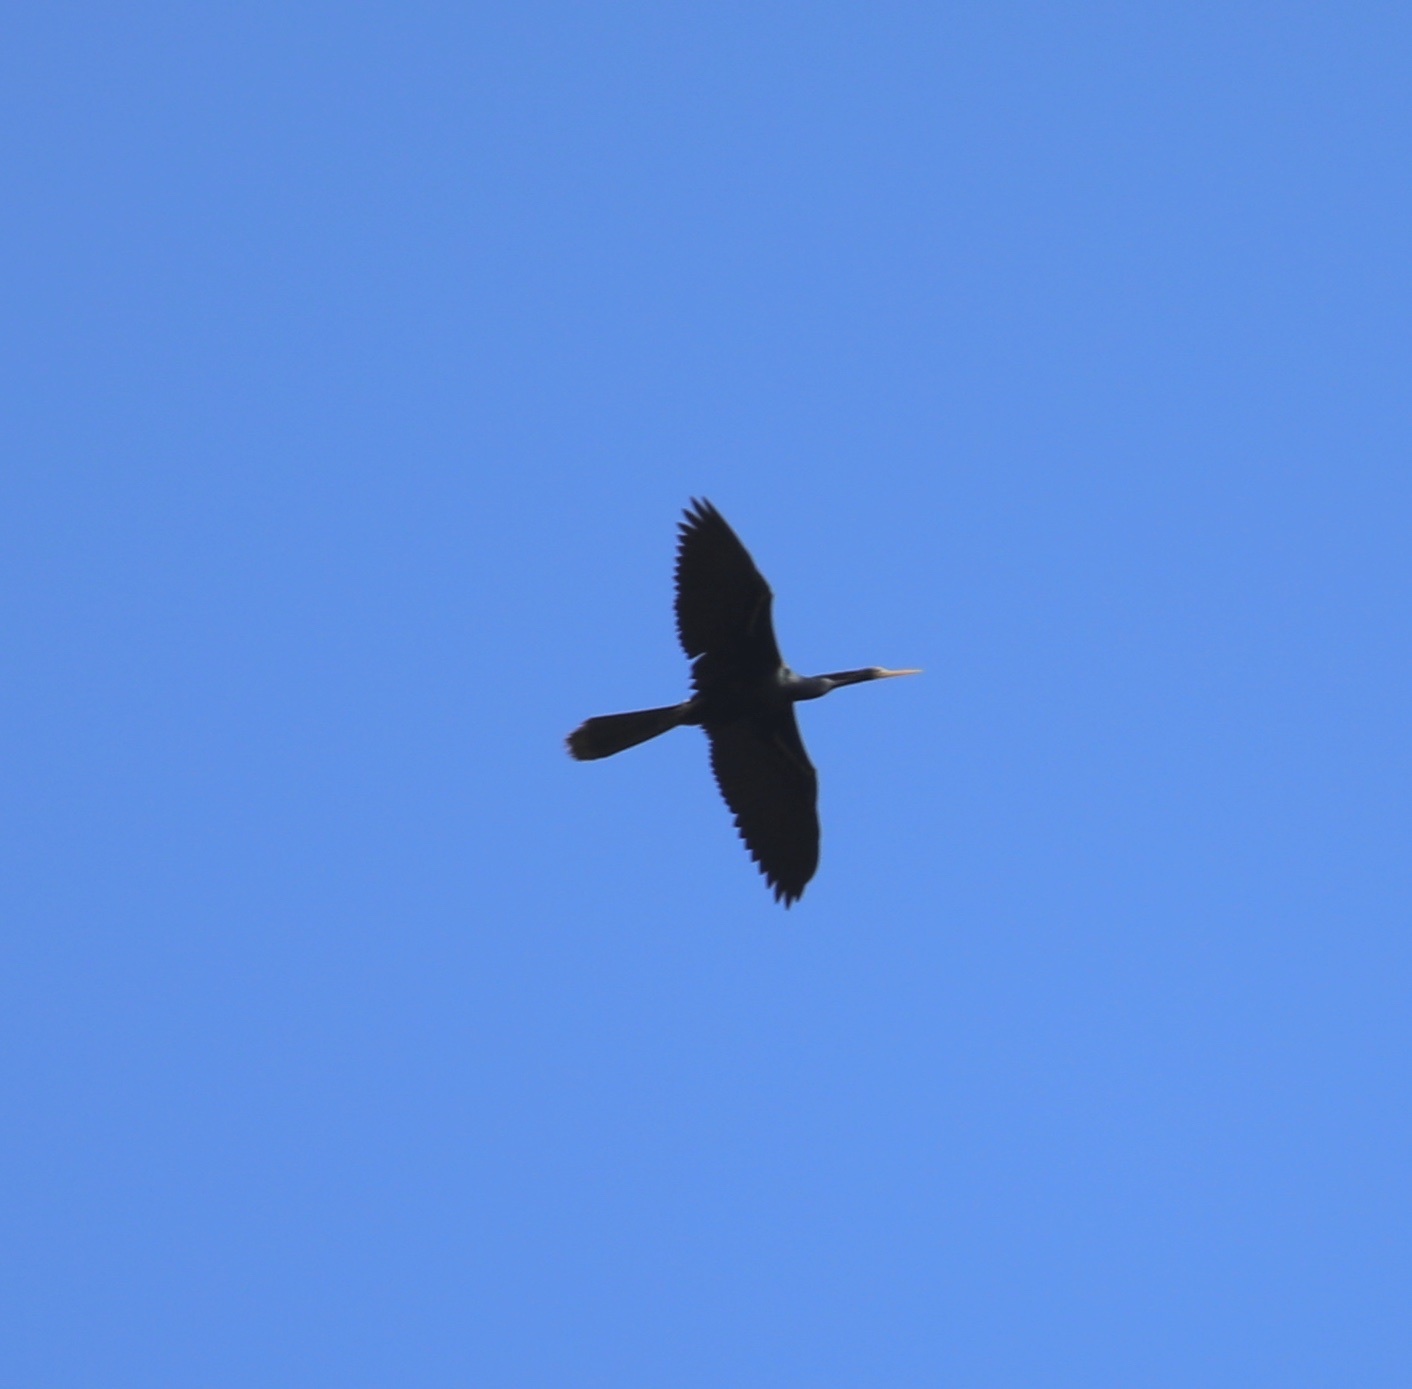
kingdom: Animalia
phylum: Chordata
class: Aves
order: Suliformes
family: Anhingidae
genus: Anhinga
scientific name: Anhinga anhinga
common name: Anhinga
